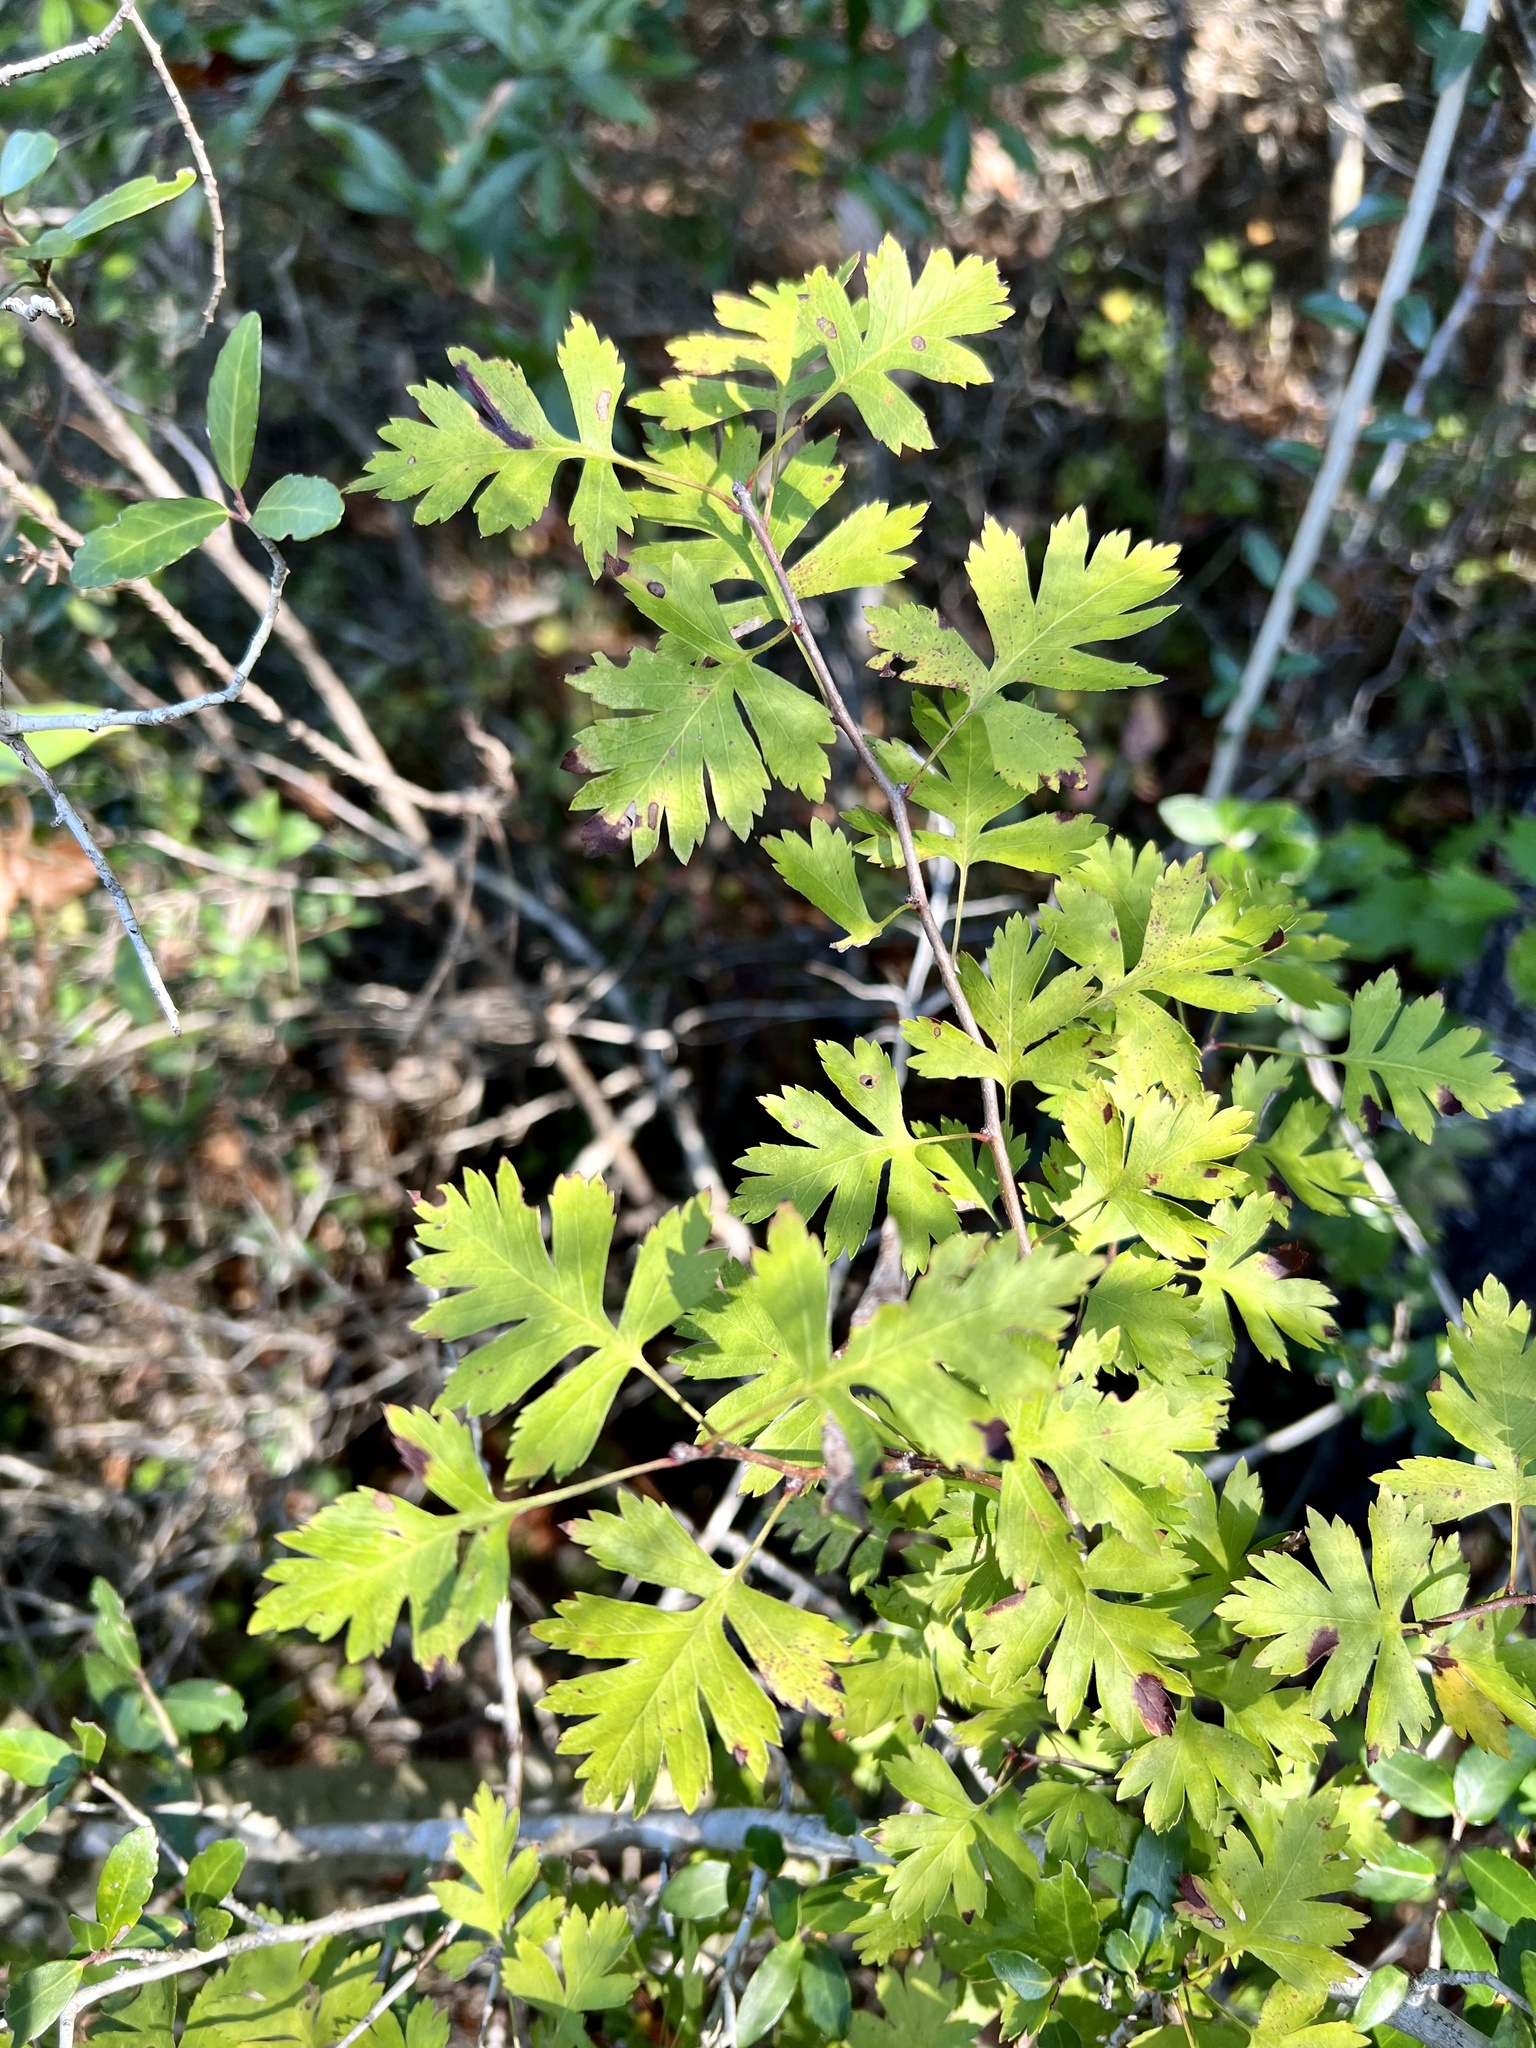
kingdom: Plantae
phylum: Tracheophyta
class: Magnoliopsida
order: Rosales
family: Rosaceae
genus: Crataegus
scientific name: Crataegus marshallii
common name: Parsley-hawthorn
